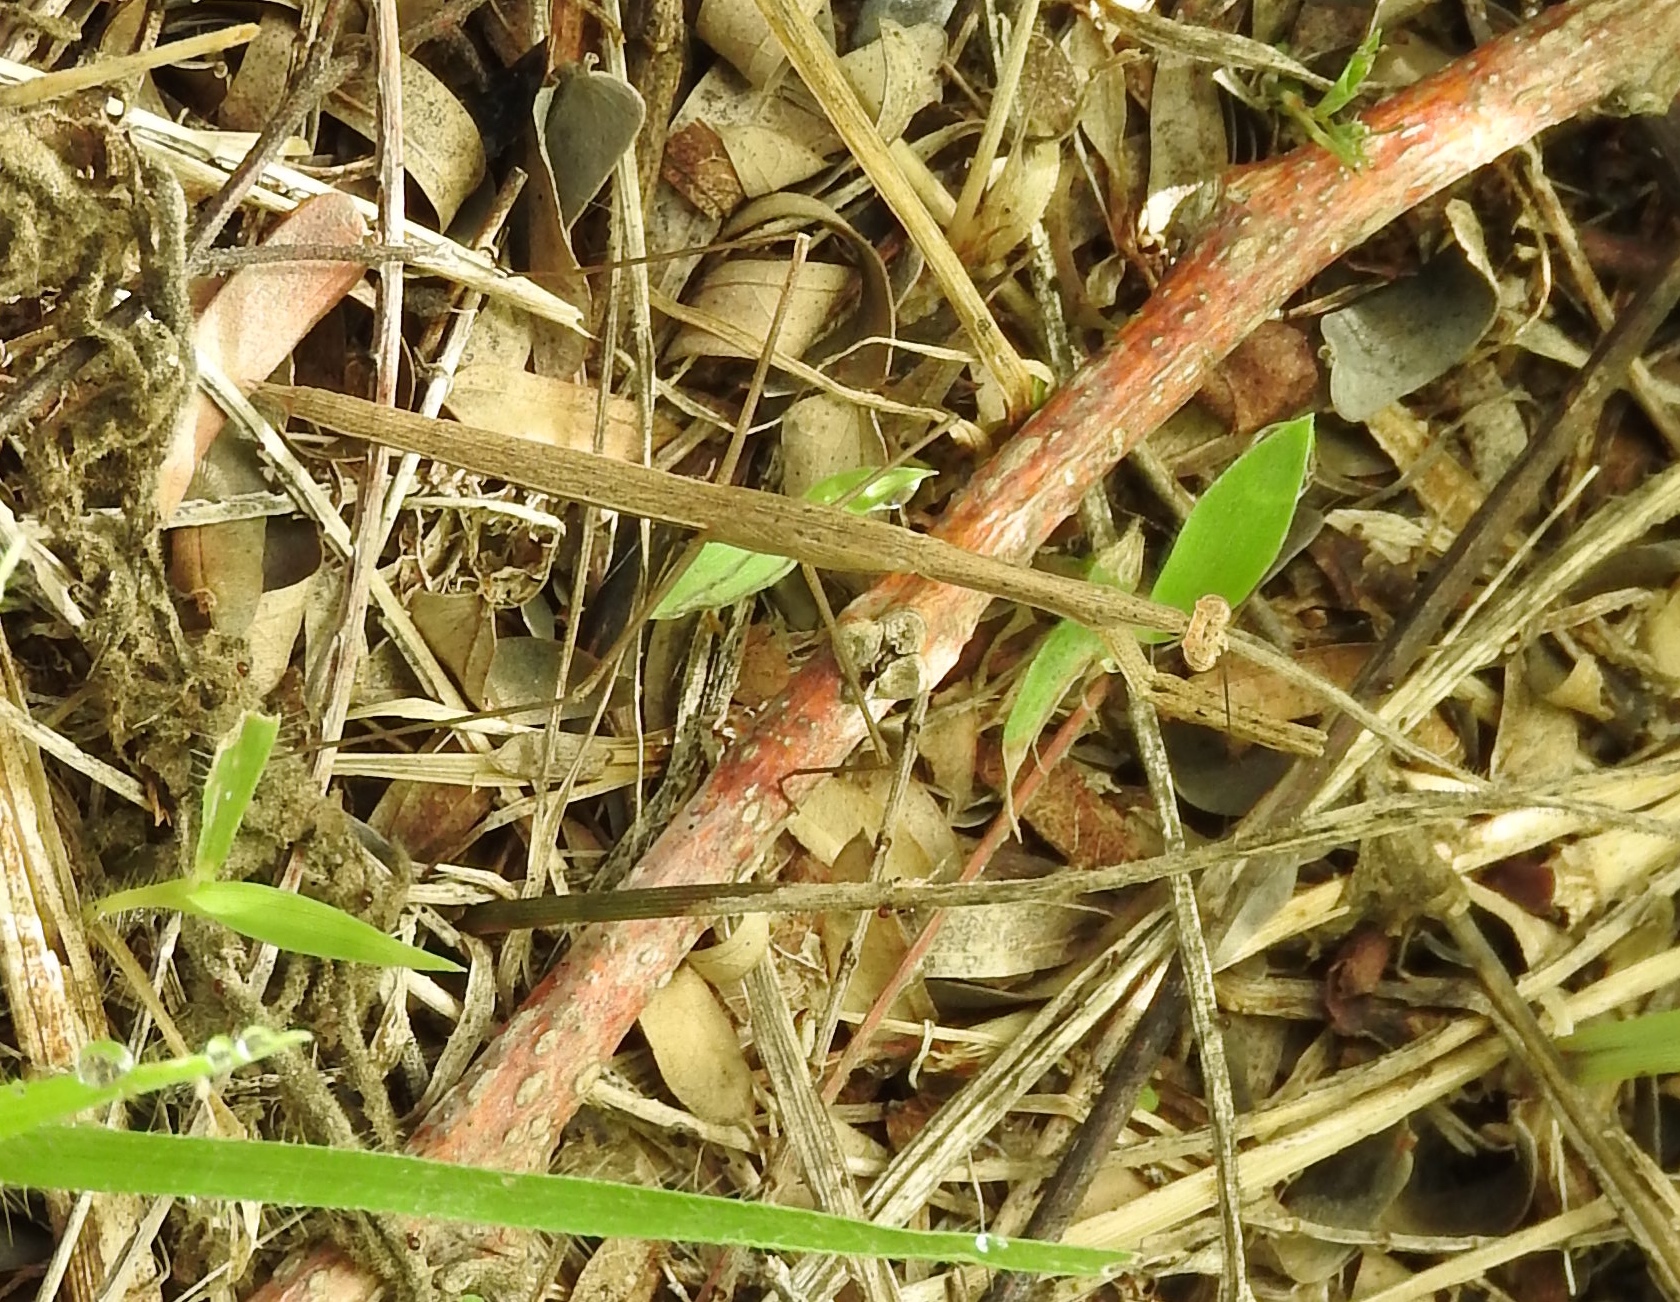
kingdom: Animalia
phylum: Arthropoda
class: Insecta
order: Mantodea
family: Thespidae
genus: Bistanta
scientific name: Bistanta mexicana
